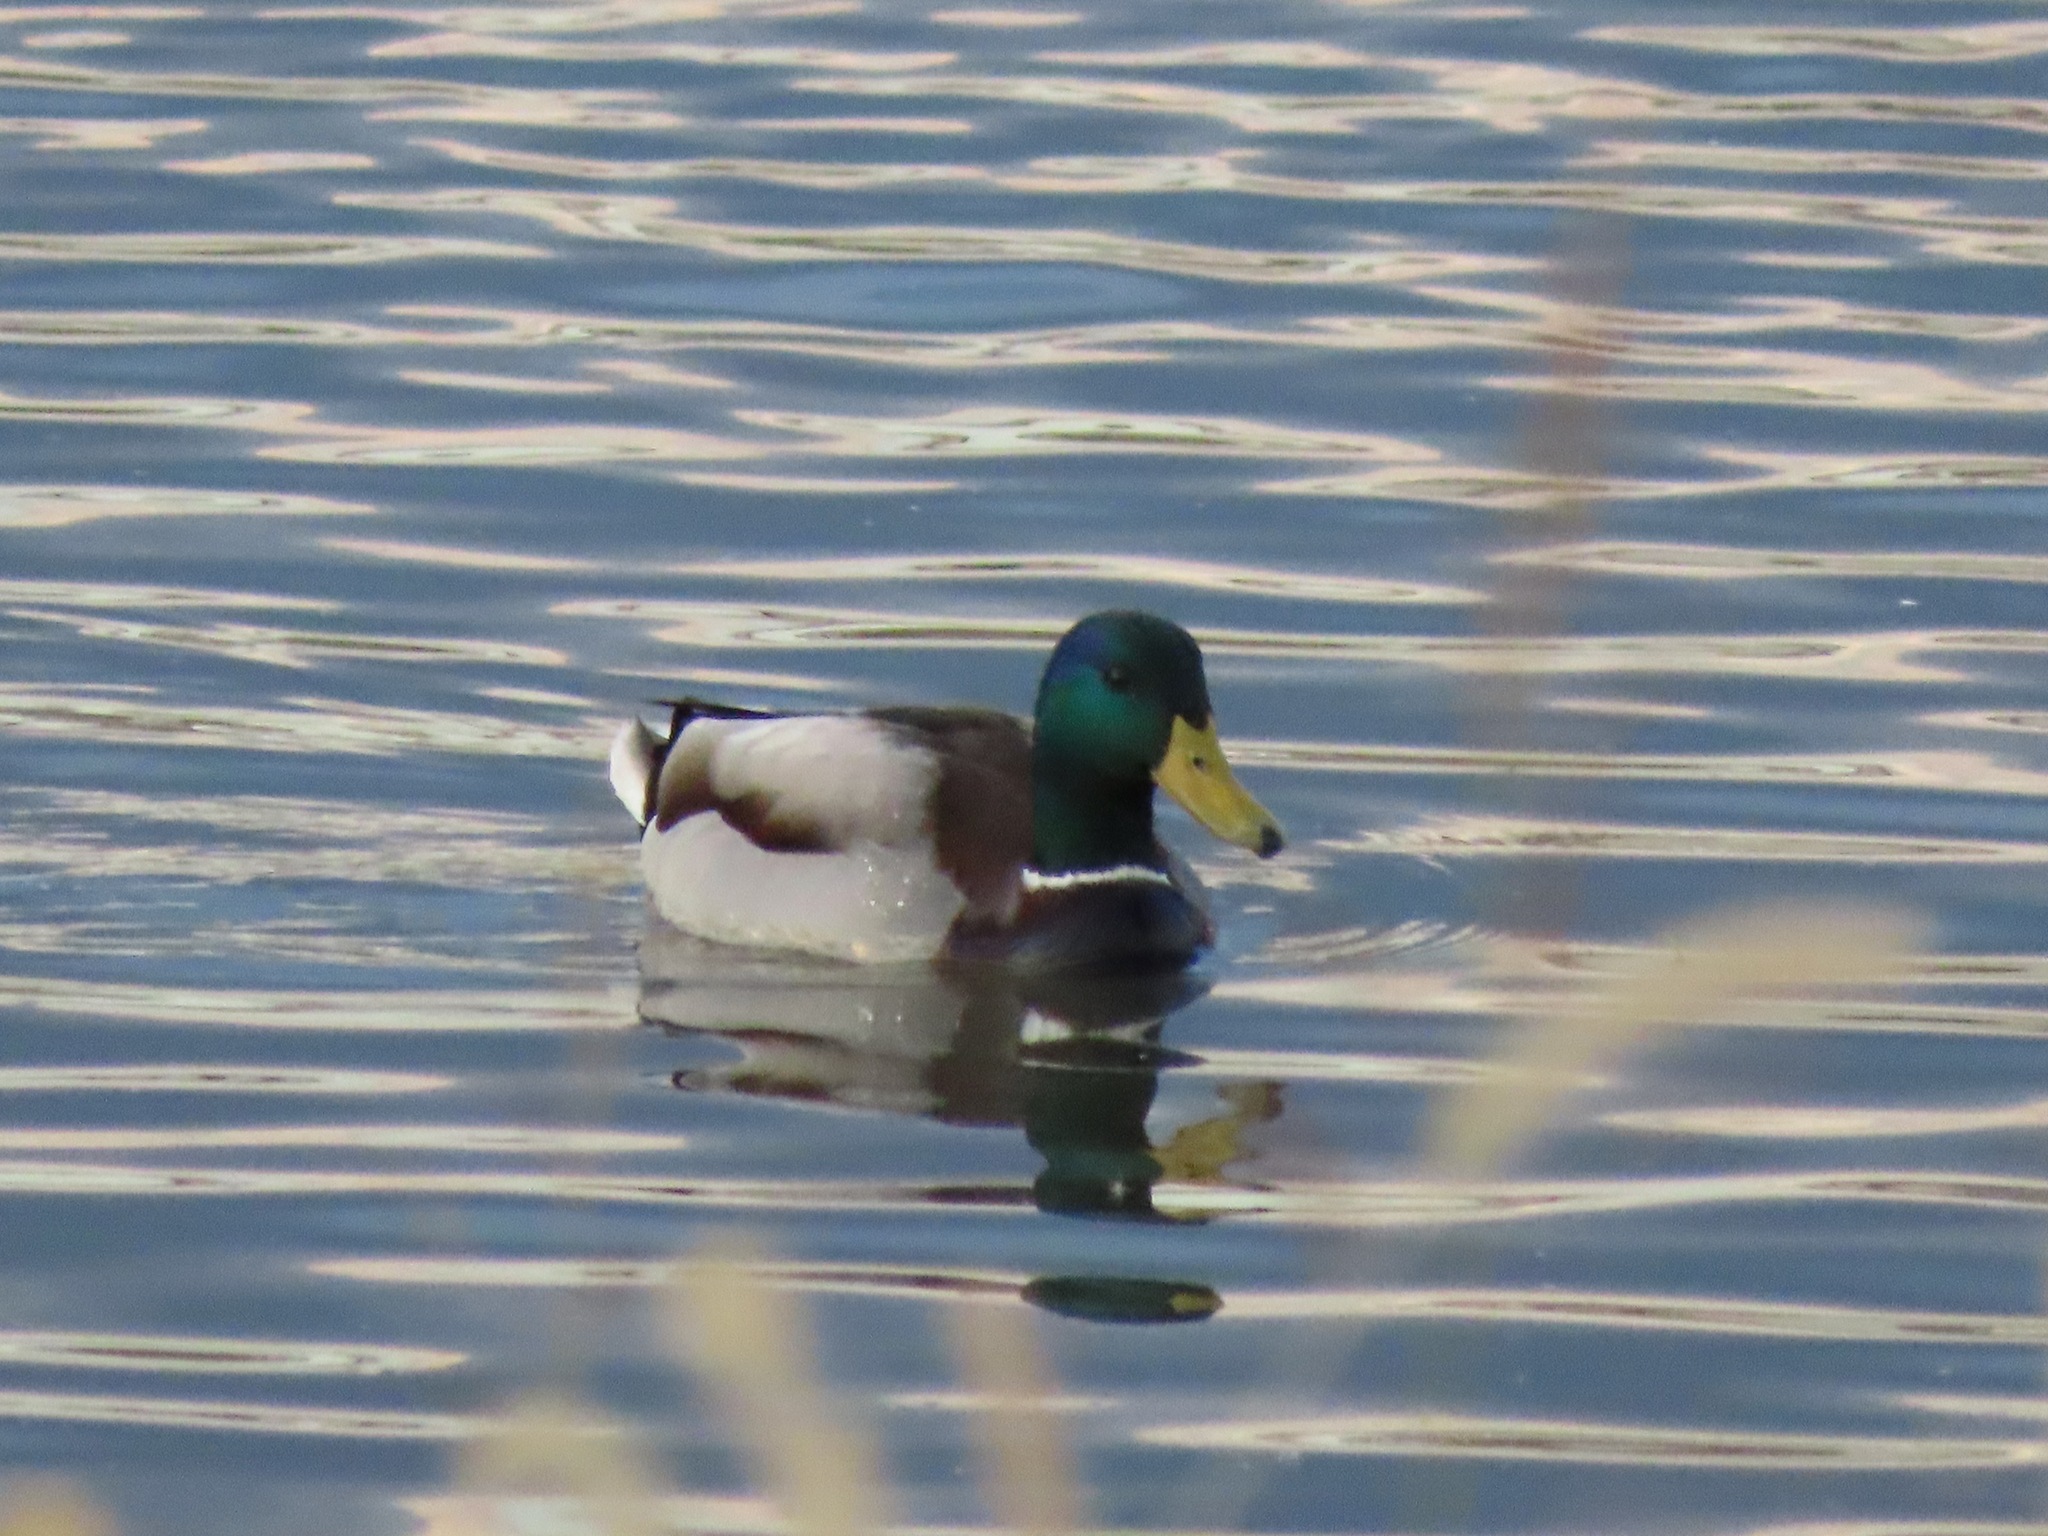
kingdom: Animalia
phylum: Chordata
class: Aves
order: Anseriformes
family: Anatidae
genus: Anas
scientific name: Anas platyrhynchos
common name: Mallard
